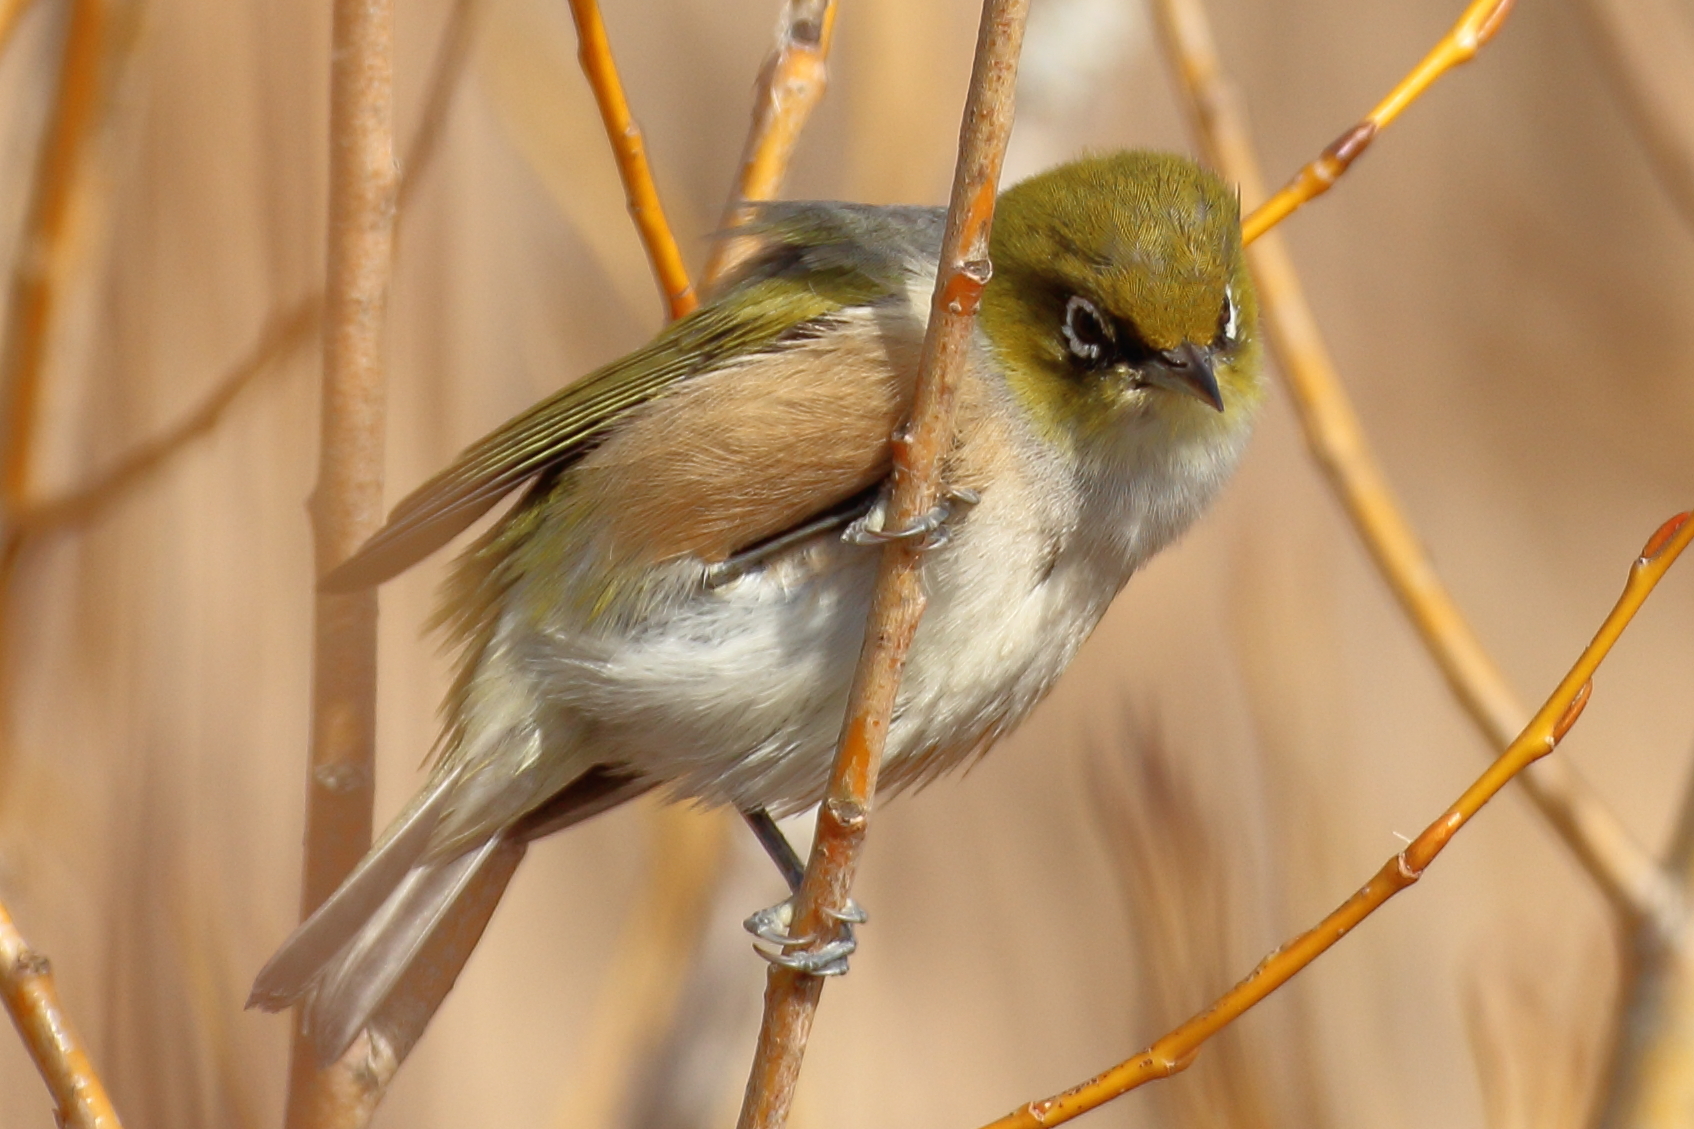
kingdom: Animalia
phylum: Chordata
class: Aves
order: Passeriformes
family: Zosteropidae
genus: Zosterops
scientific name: Zosterops lateralis
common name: Silvereye
